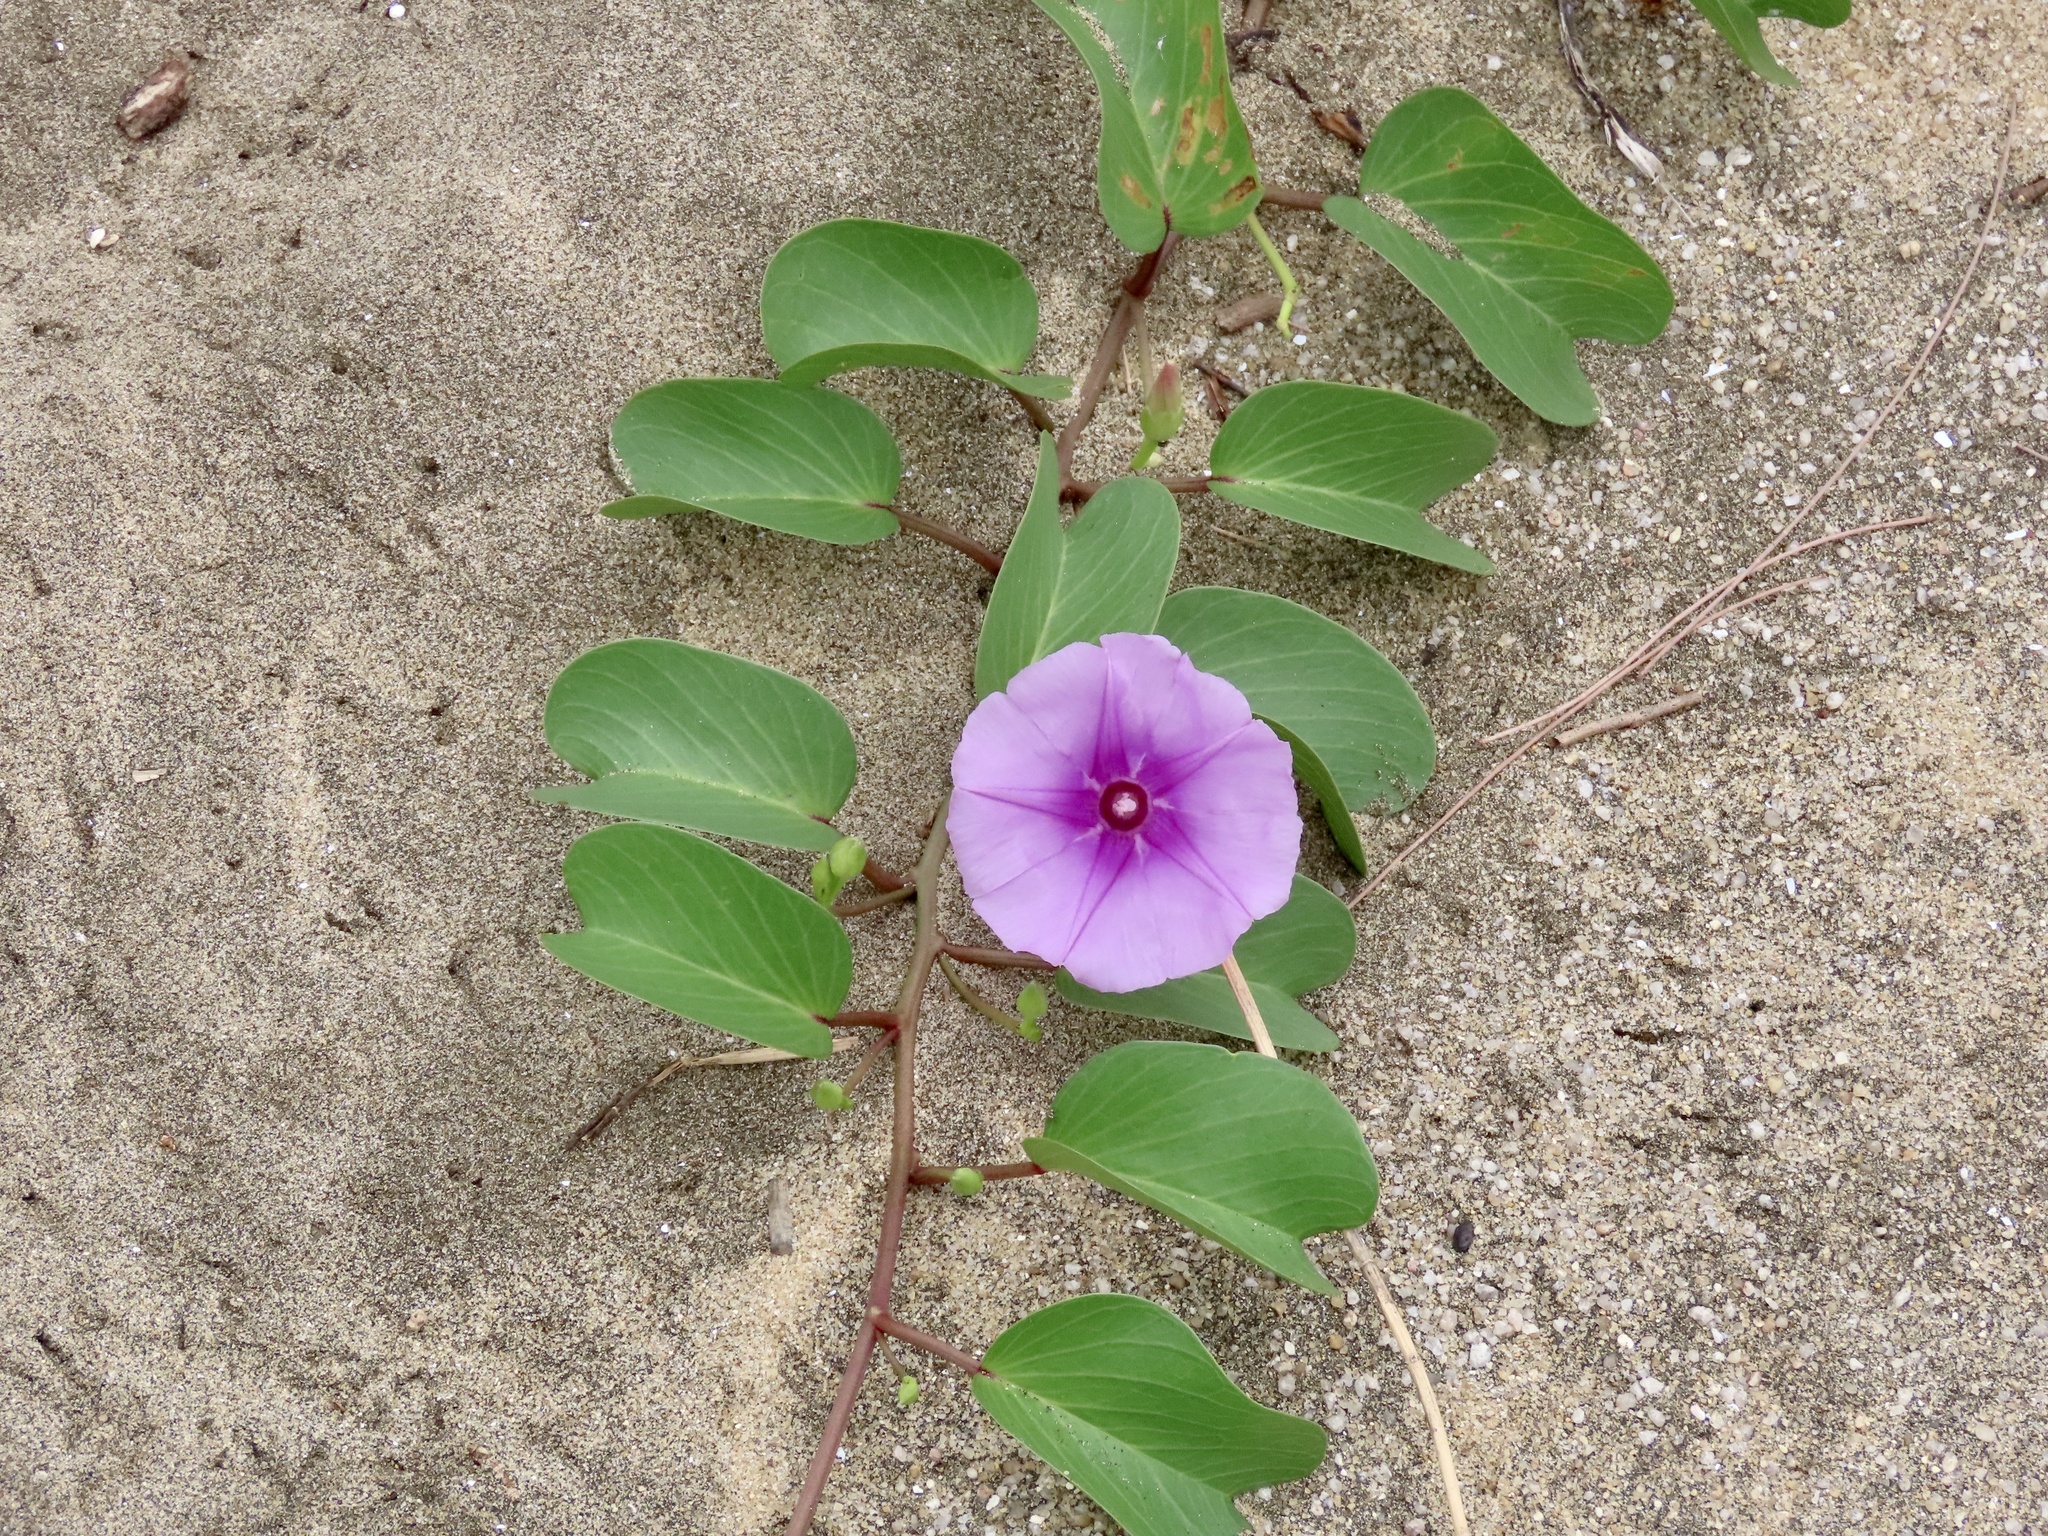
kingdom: Plantae
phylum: Tracheophyta
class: Magnoliopsida
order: Solanales
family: Convolvulaceae
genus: Ipomoea
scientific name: Ipomoea pes-caprae
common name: Beach morning glory
